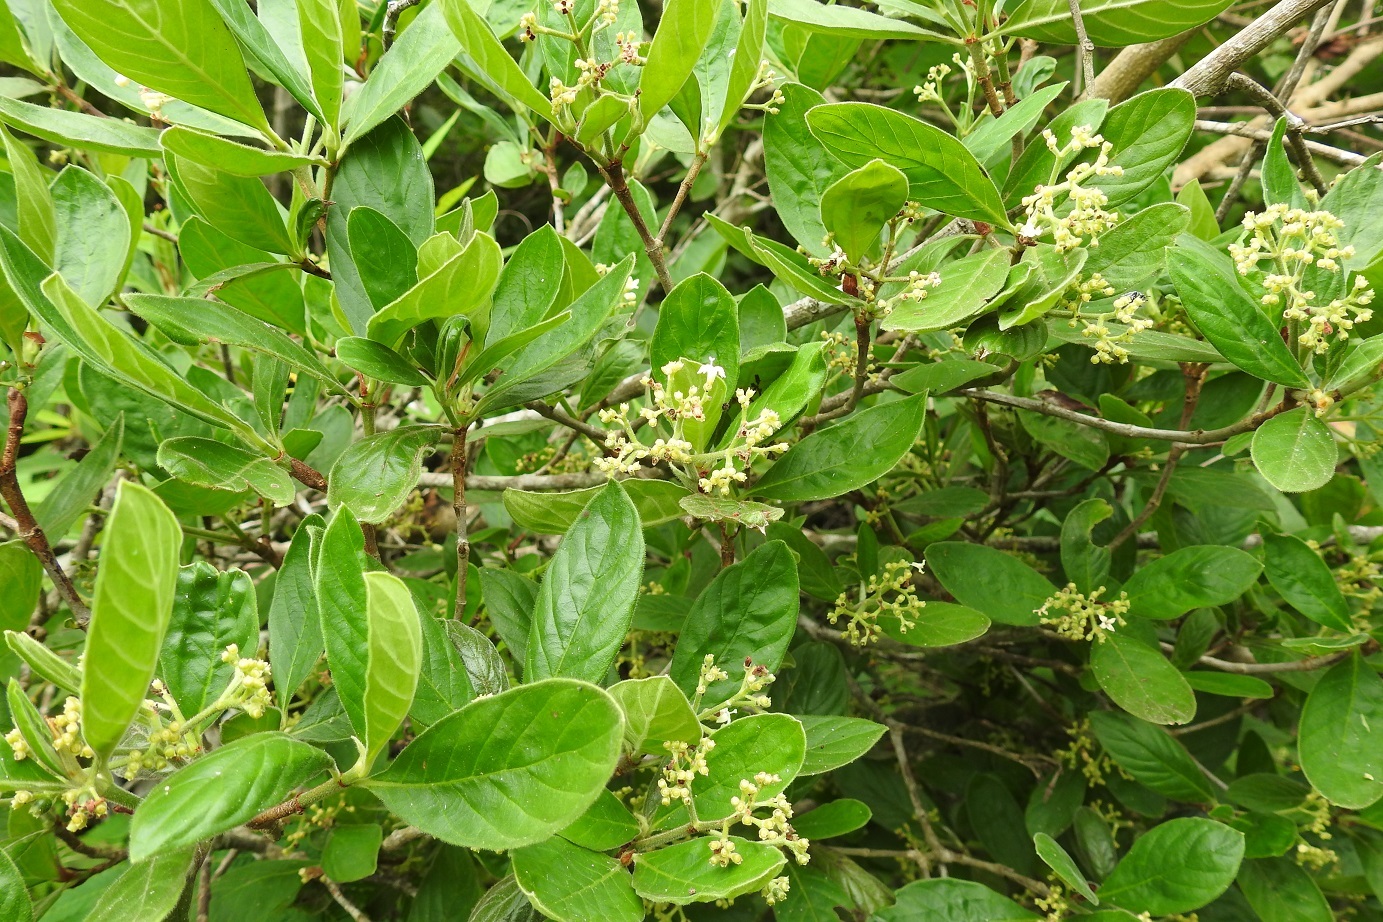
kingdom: Plantae
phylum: Tracheophyta
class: Magnoliopsida
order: Gentianales
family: Rubiaceae
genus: Psychotria
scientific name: Psychotria erythrocarpa
